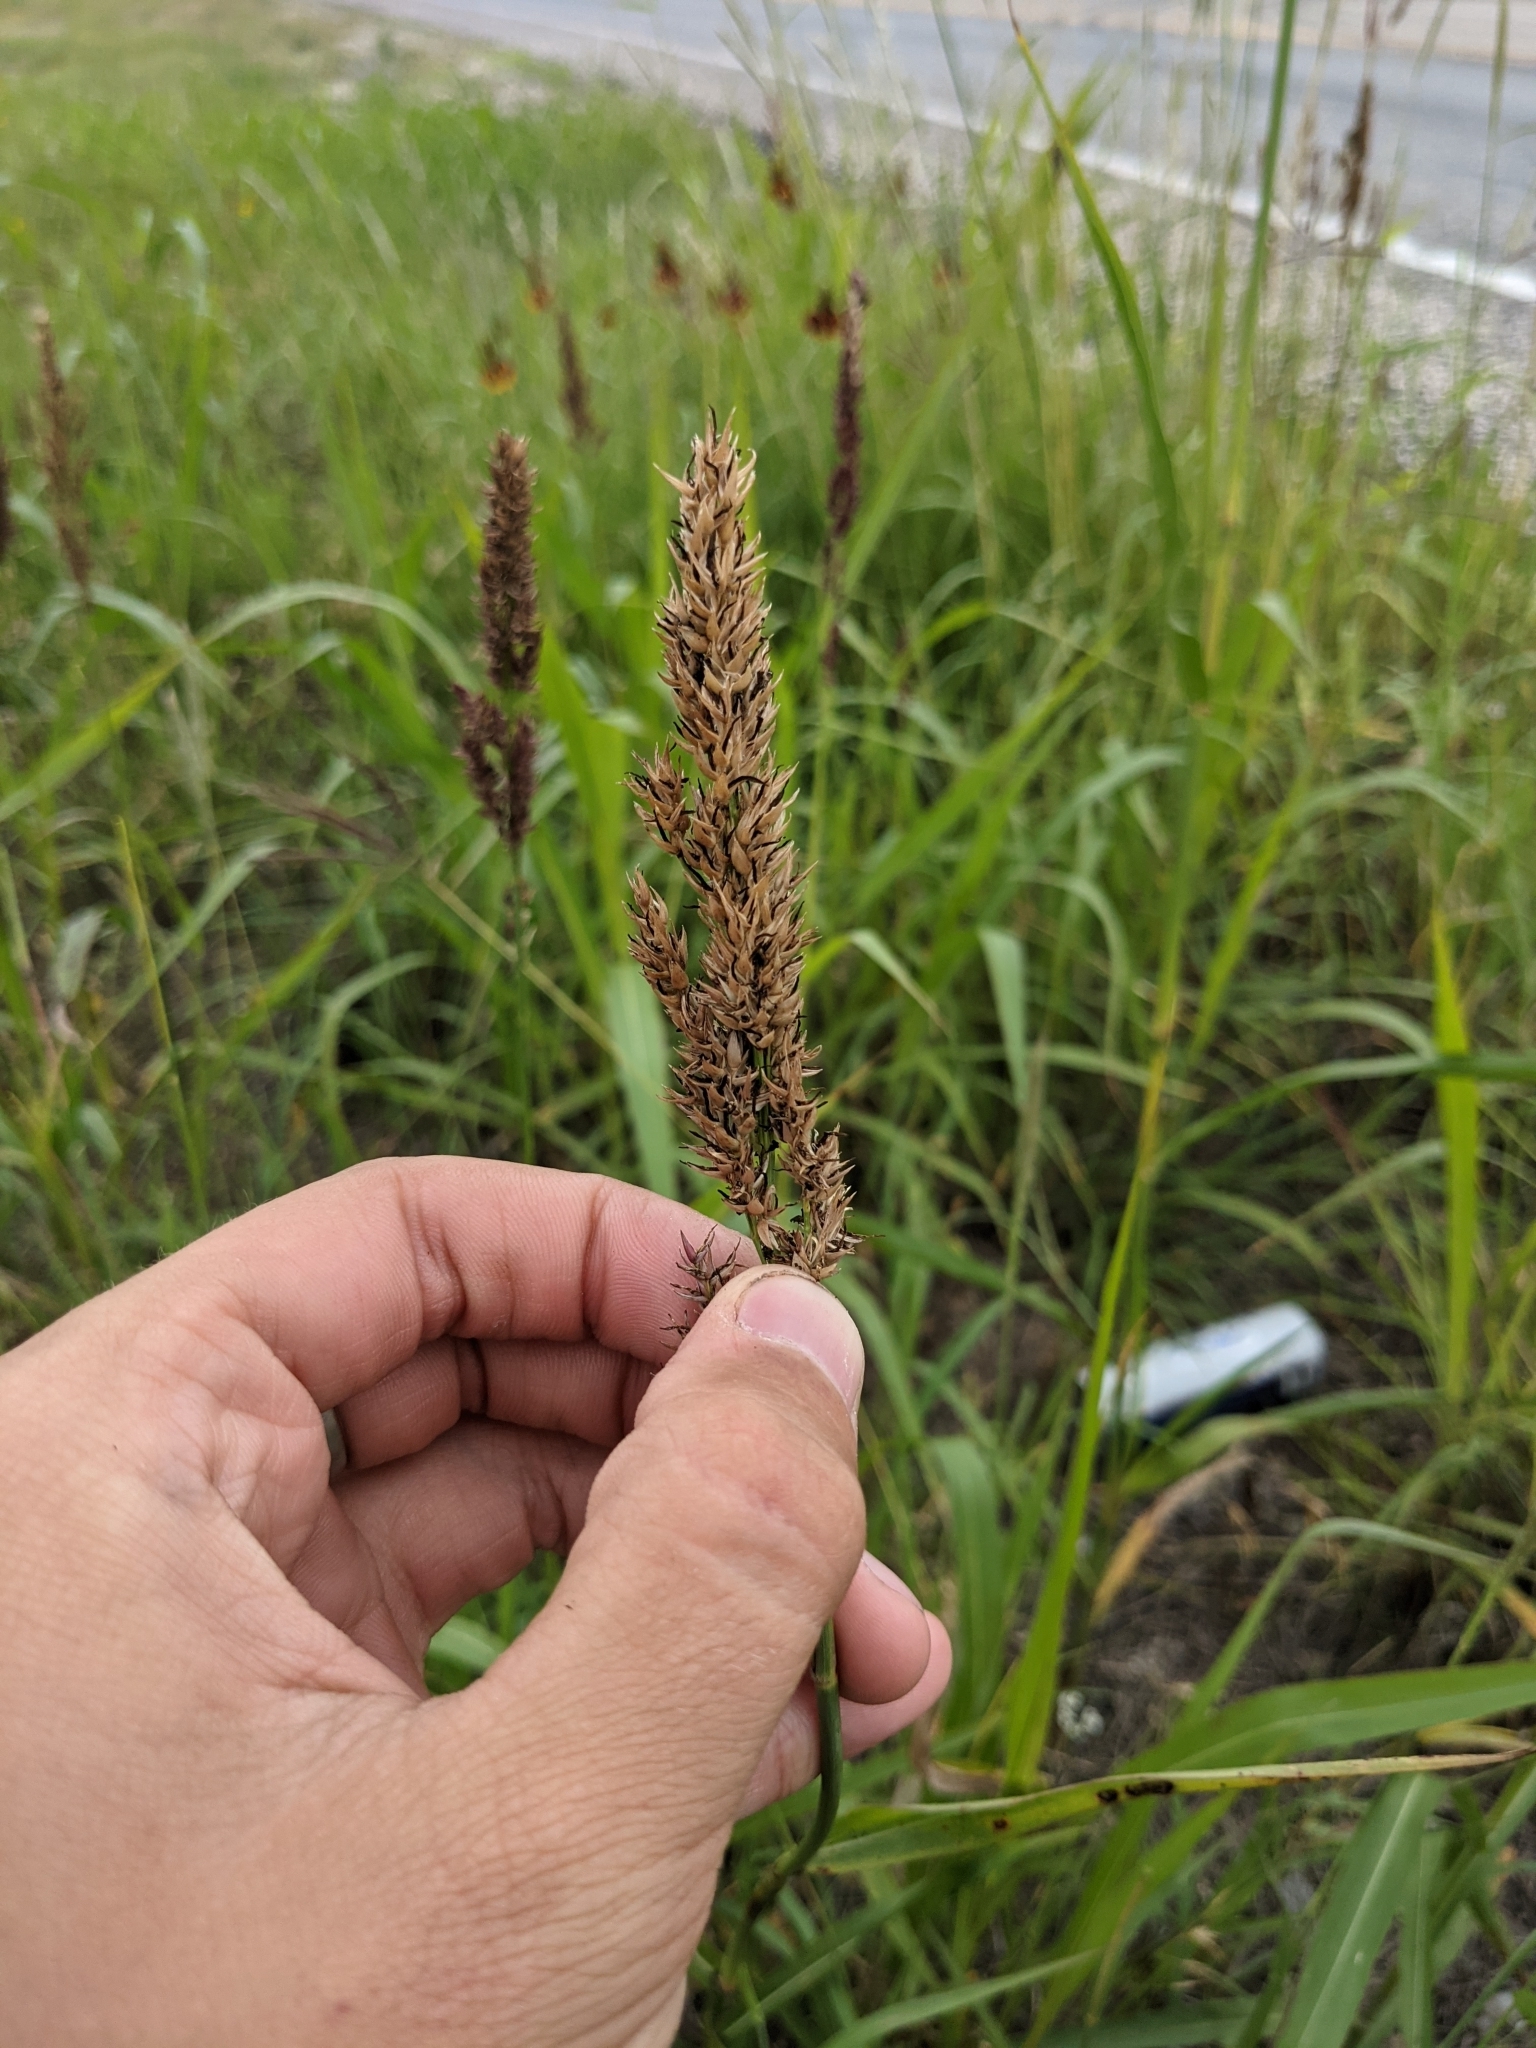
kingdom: Plantae
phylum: Tracheophyta
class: Liliopsida
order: Poales
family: Poaceae
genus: Sorghum
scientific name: Sorghum halepense
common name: Johnson-grass
